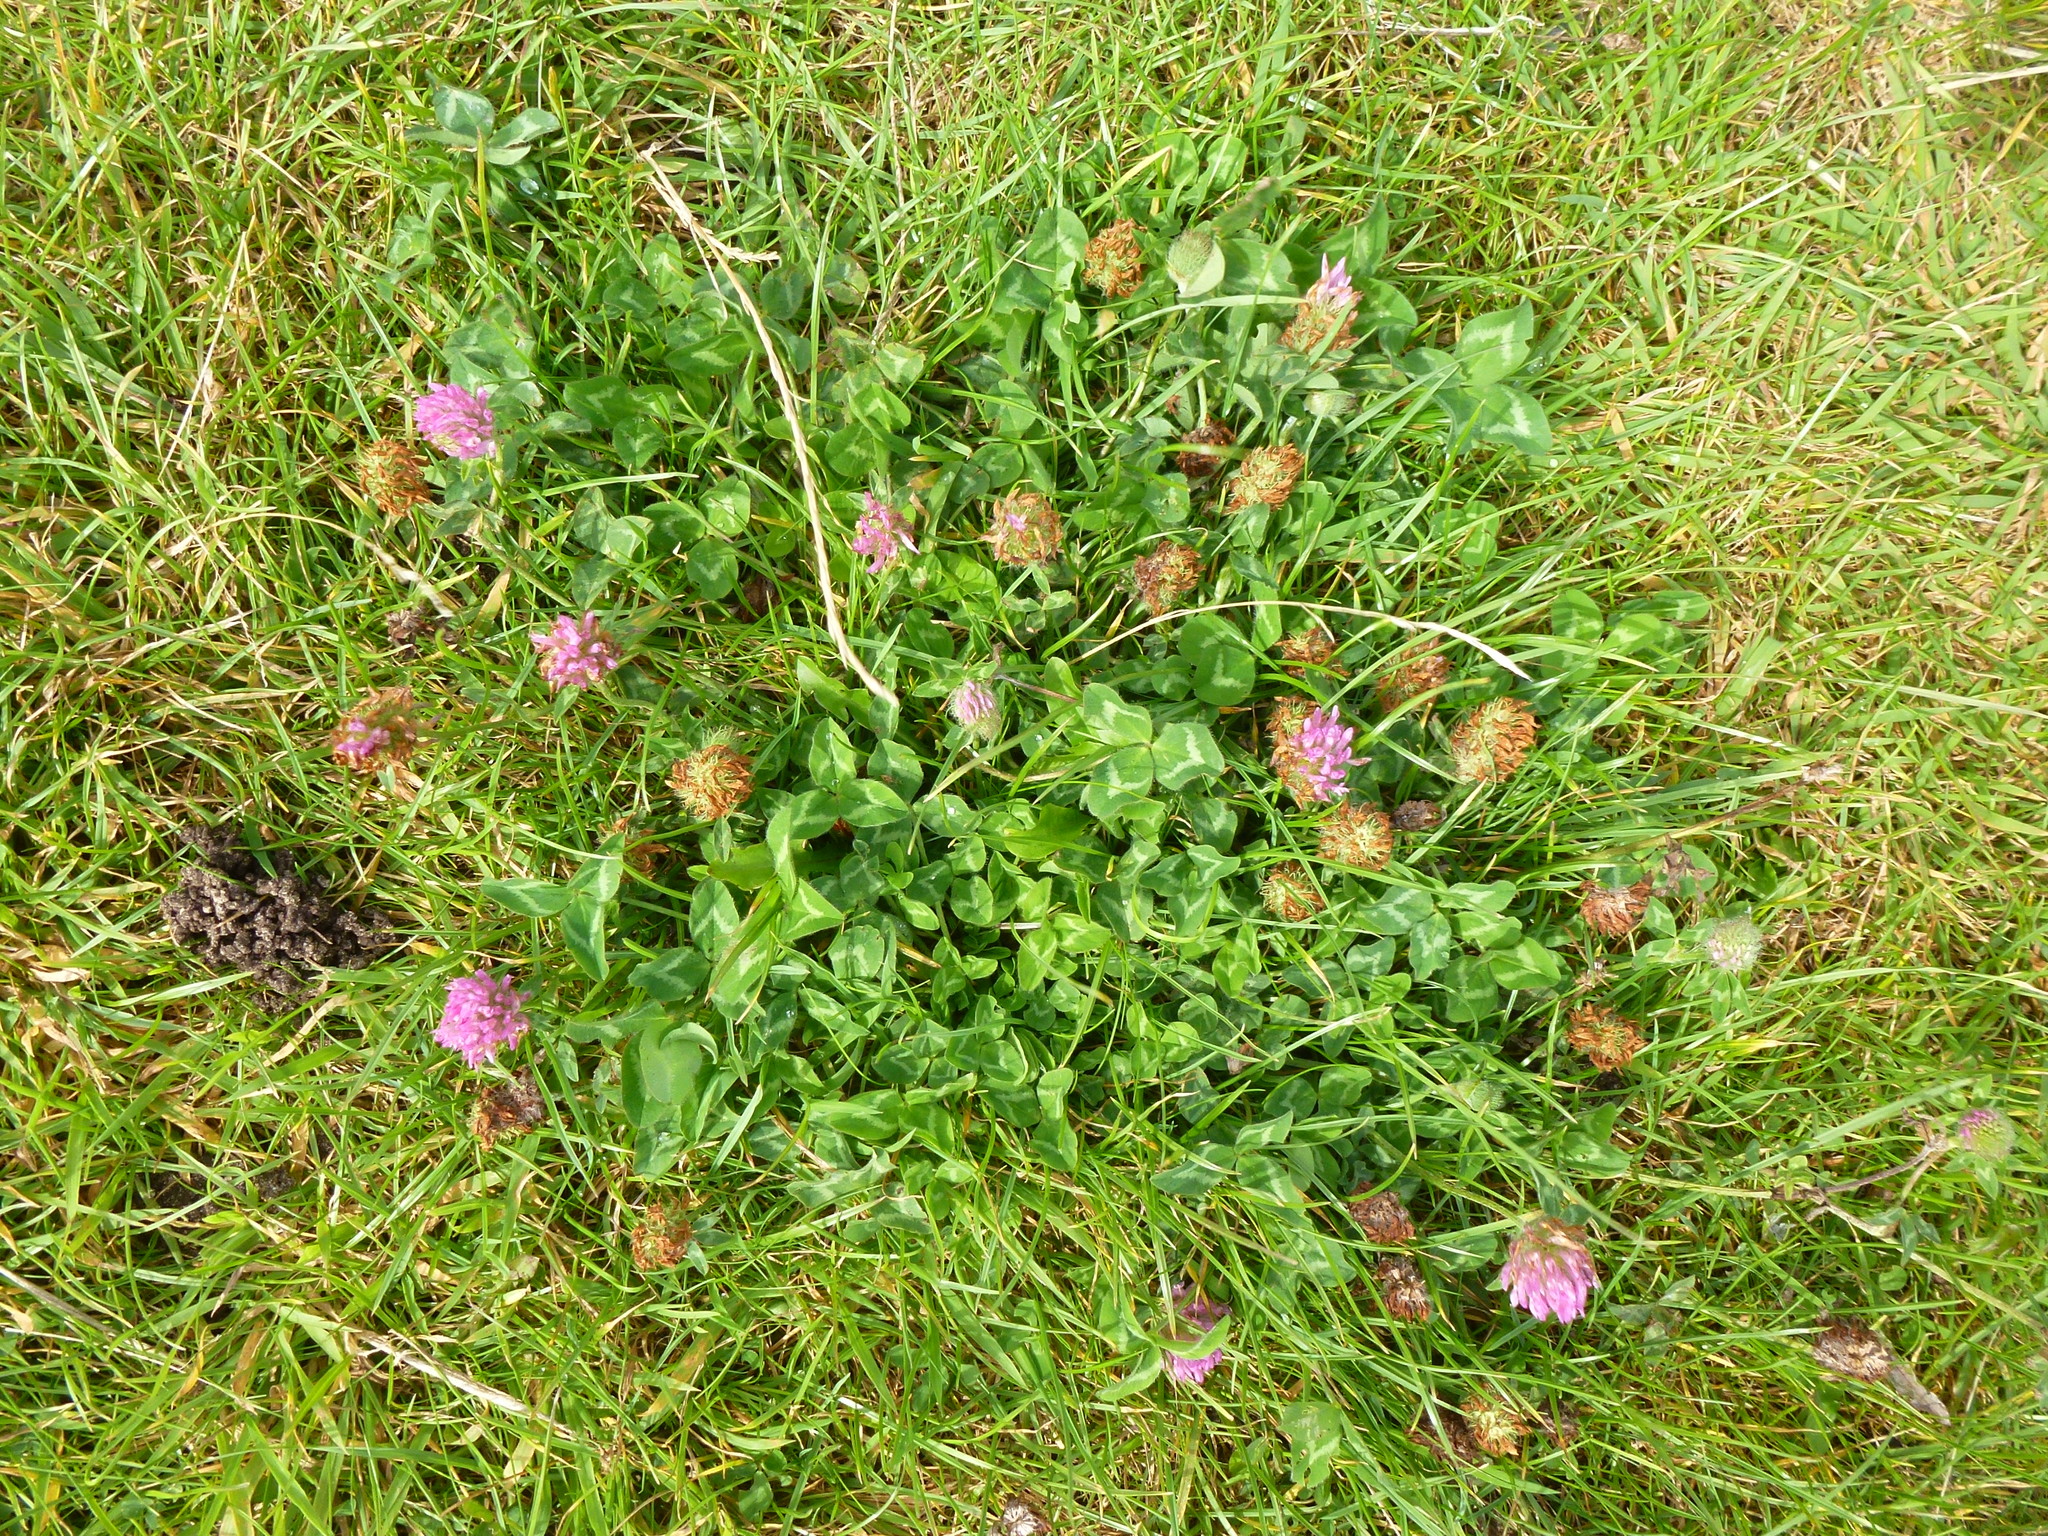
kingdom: Plantae
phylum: Tracheophyta
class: Magnoliopsida
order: Fabales
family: Fabaceae
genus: Trifolium
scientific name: Trifolium pratense
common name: Red clover
